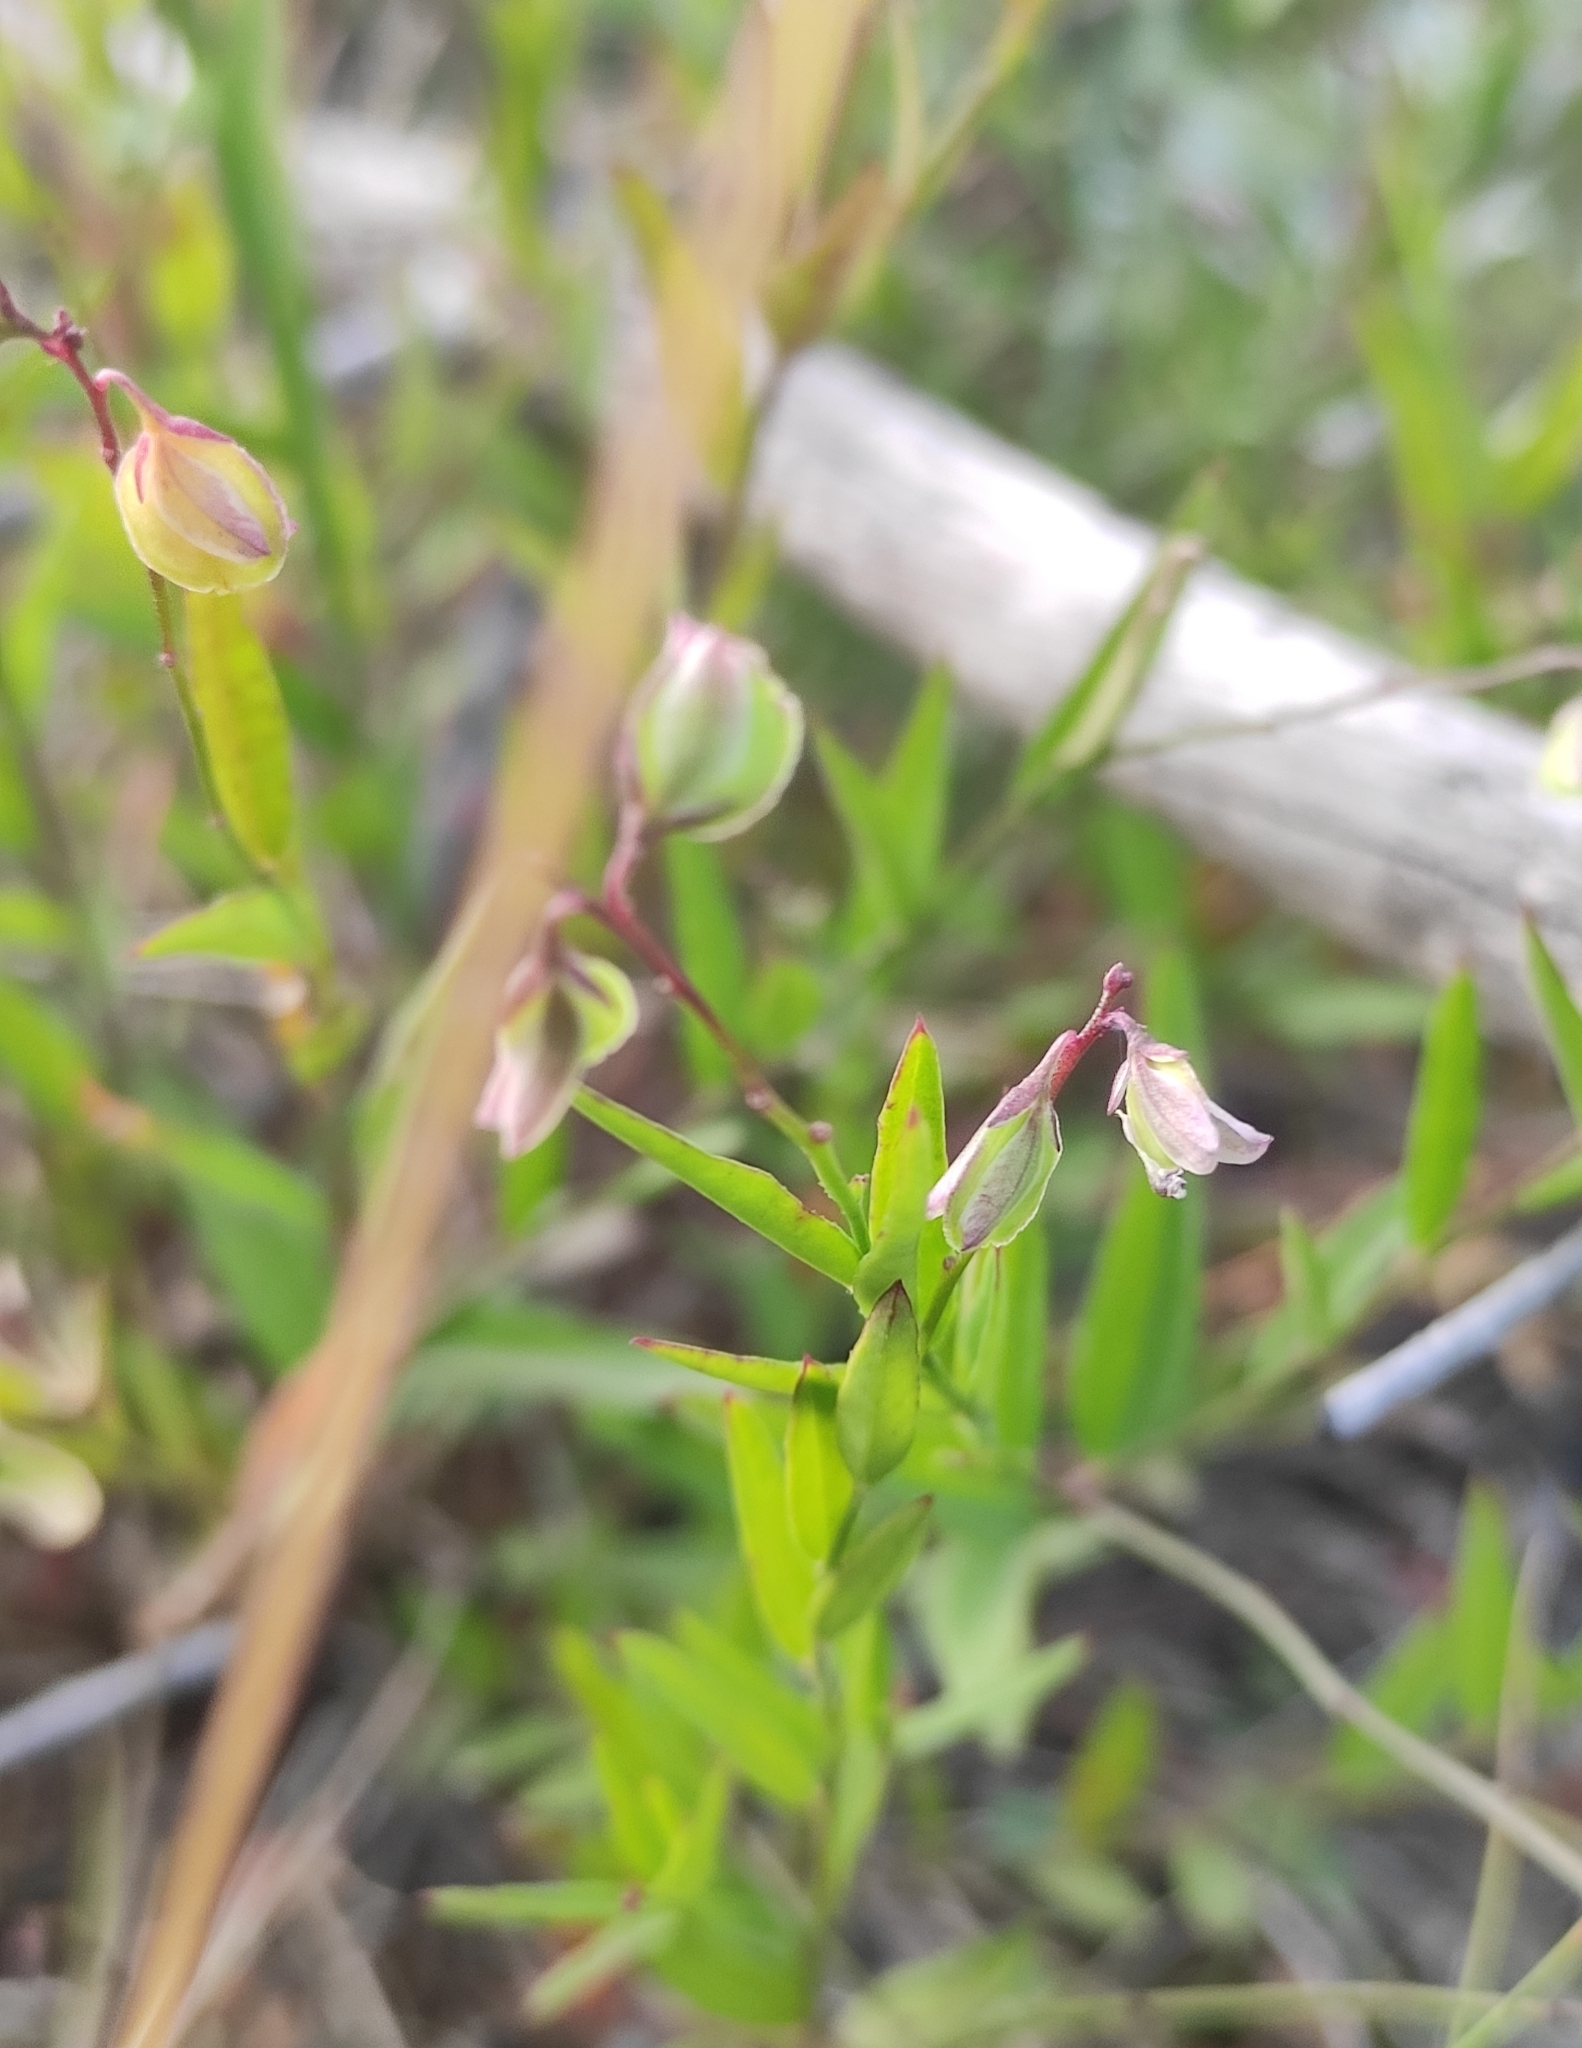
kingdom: Plantae
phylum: Tracheophyta
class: Magnoliopsida
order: Fabales
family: Polygalaceae
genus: Polygala
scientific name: Polygala sibirica
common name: Siberian polygala
